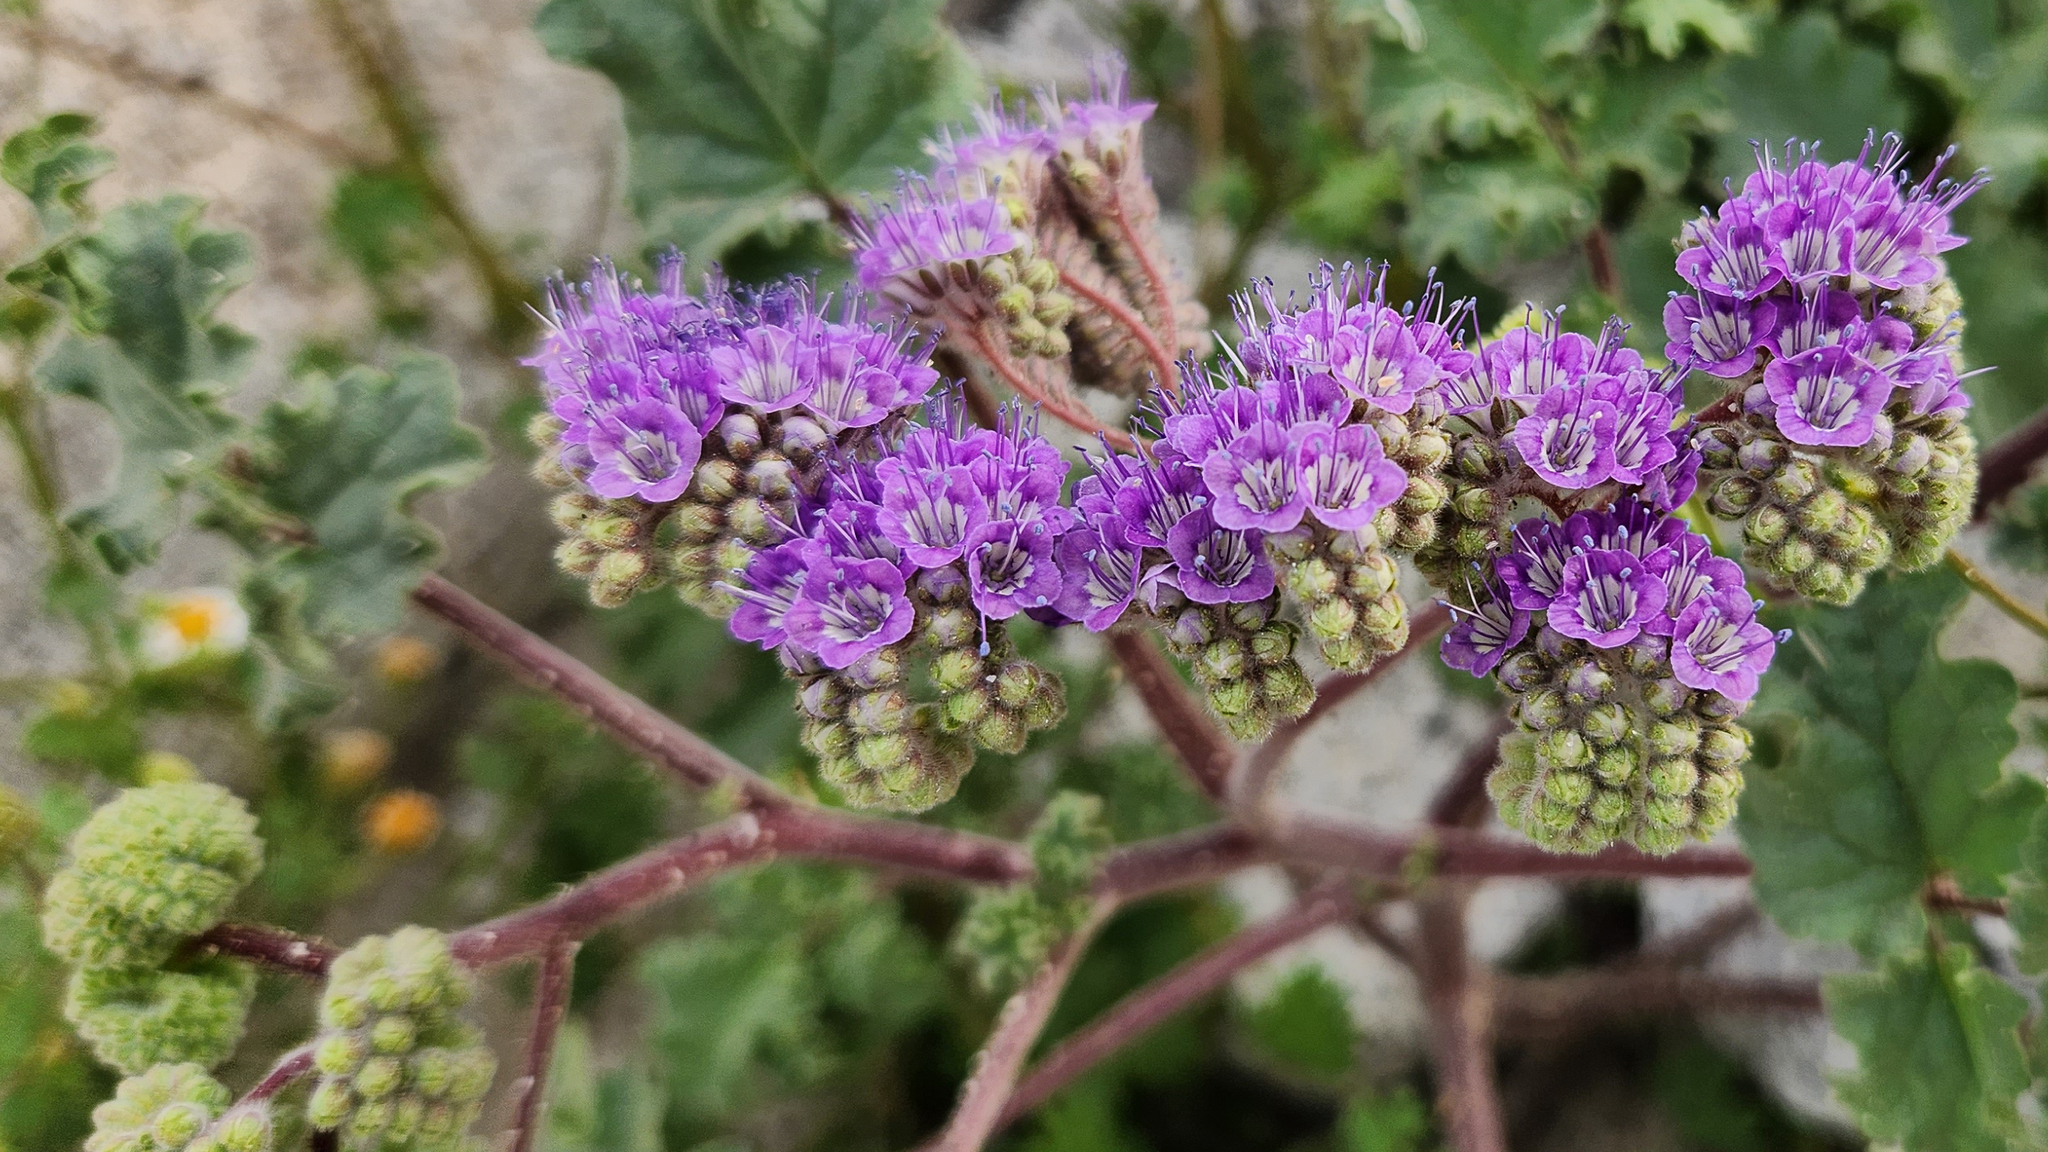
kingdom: Plantae
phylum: Tracheophyta
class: Magnoliopsida
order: Boraginales
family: Hydrophyllaceae
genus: Phacelia
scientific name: Phacelia pedicellata
